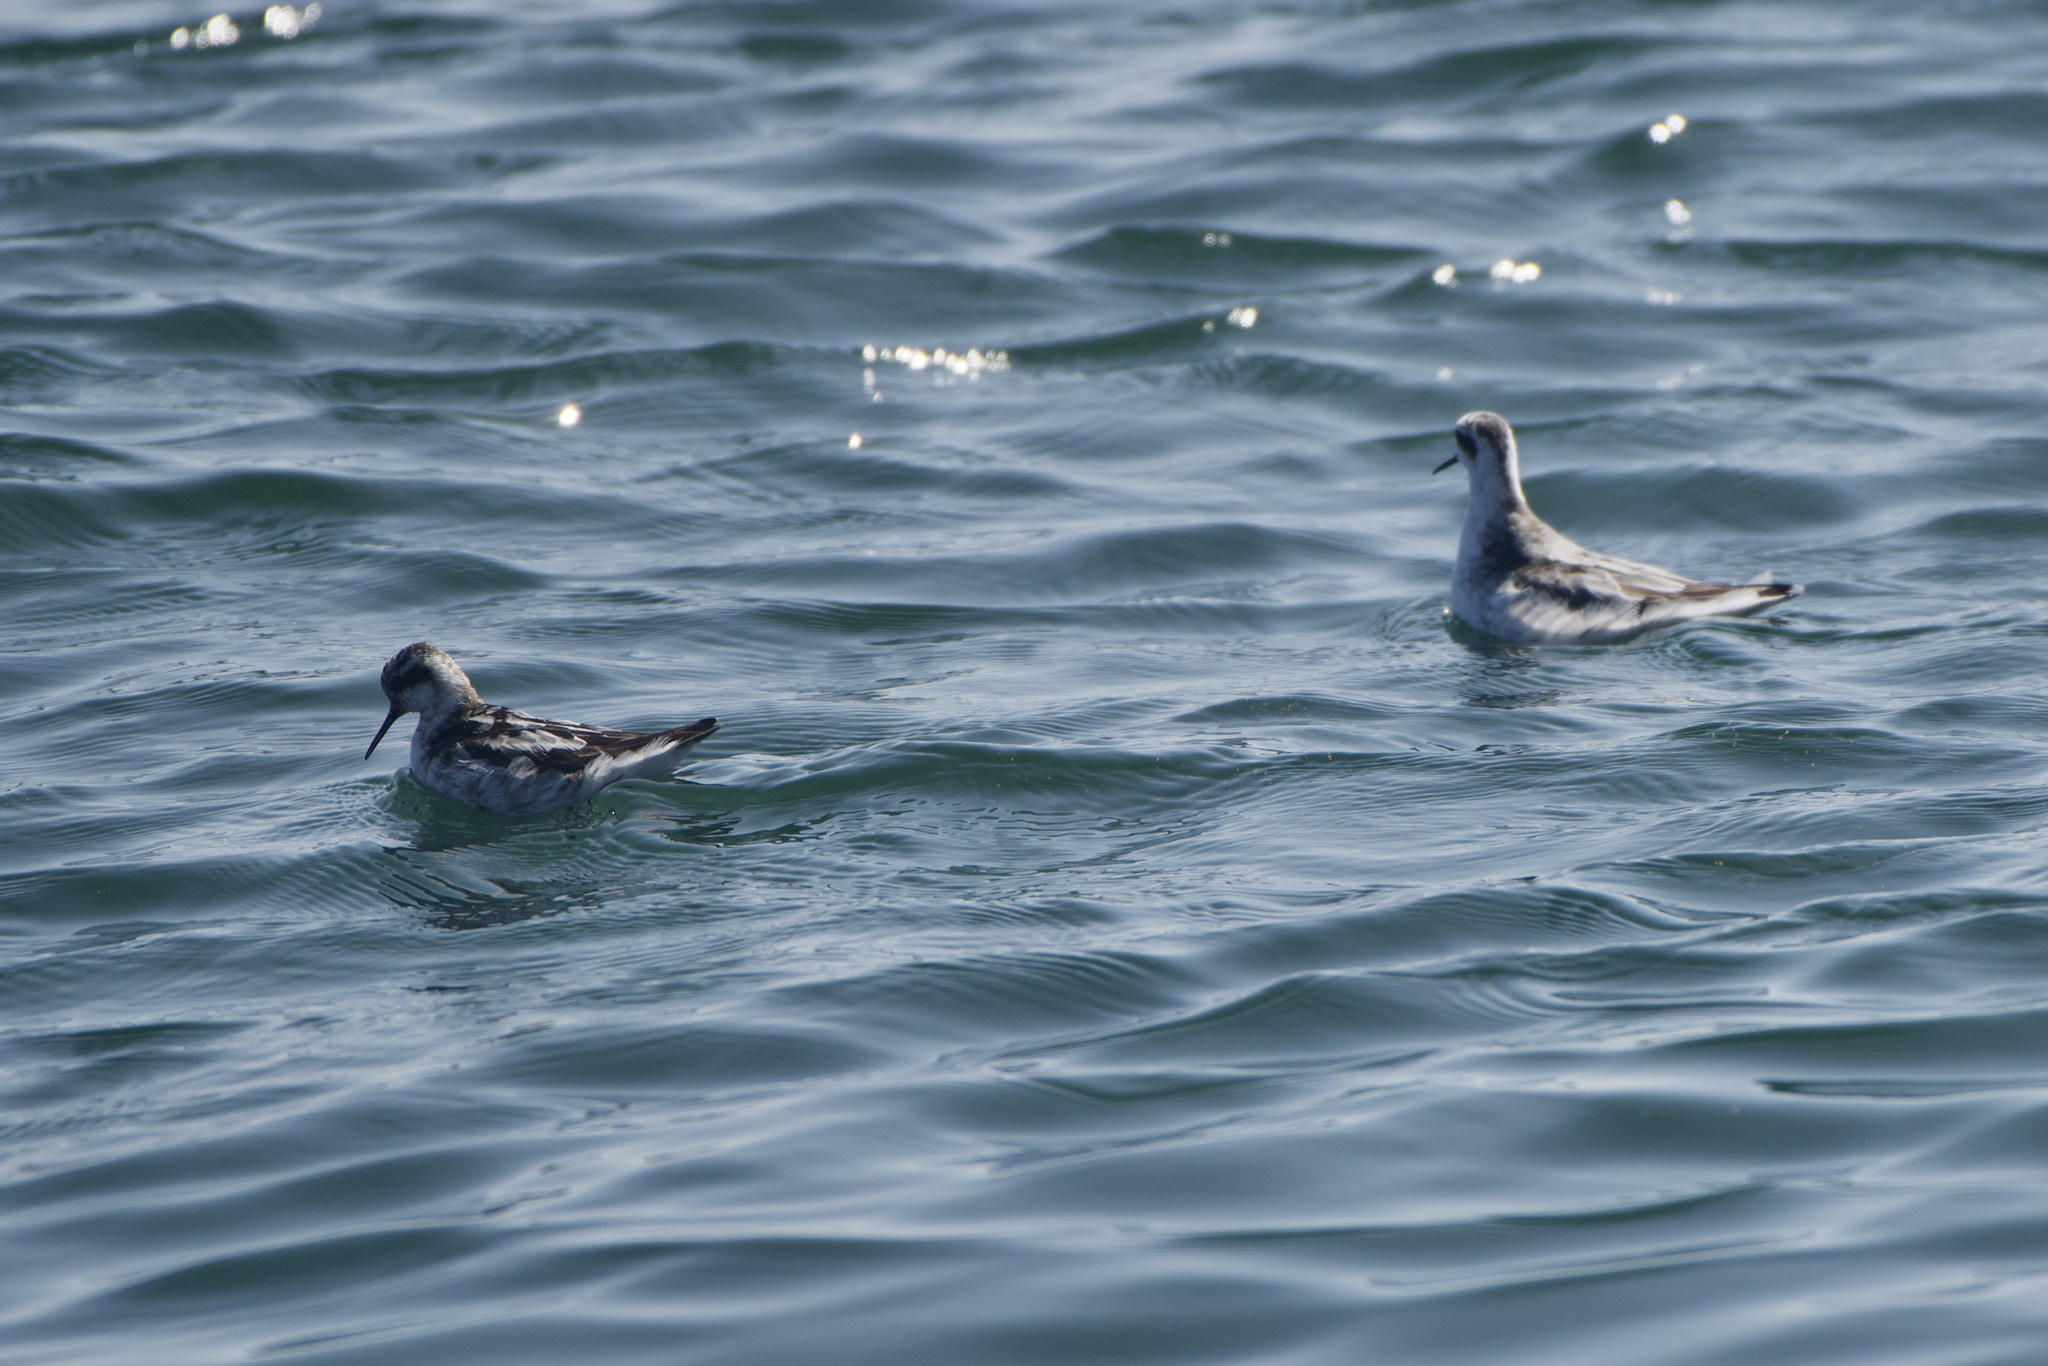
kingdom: Animalia
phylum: Chordata
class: Aves
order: Charadriiformes
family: Scolopacidae
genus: Phalaropus
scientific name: Phalaropus fulicarius
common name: Red phalarope
